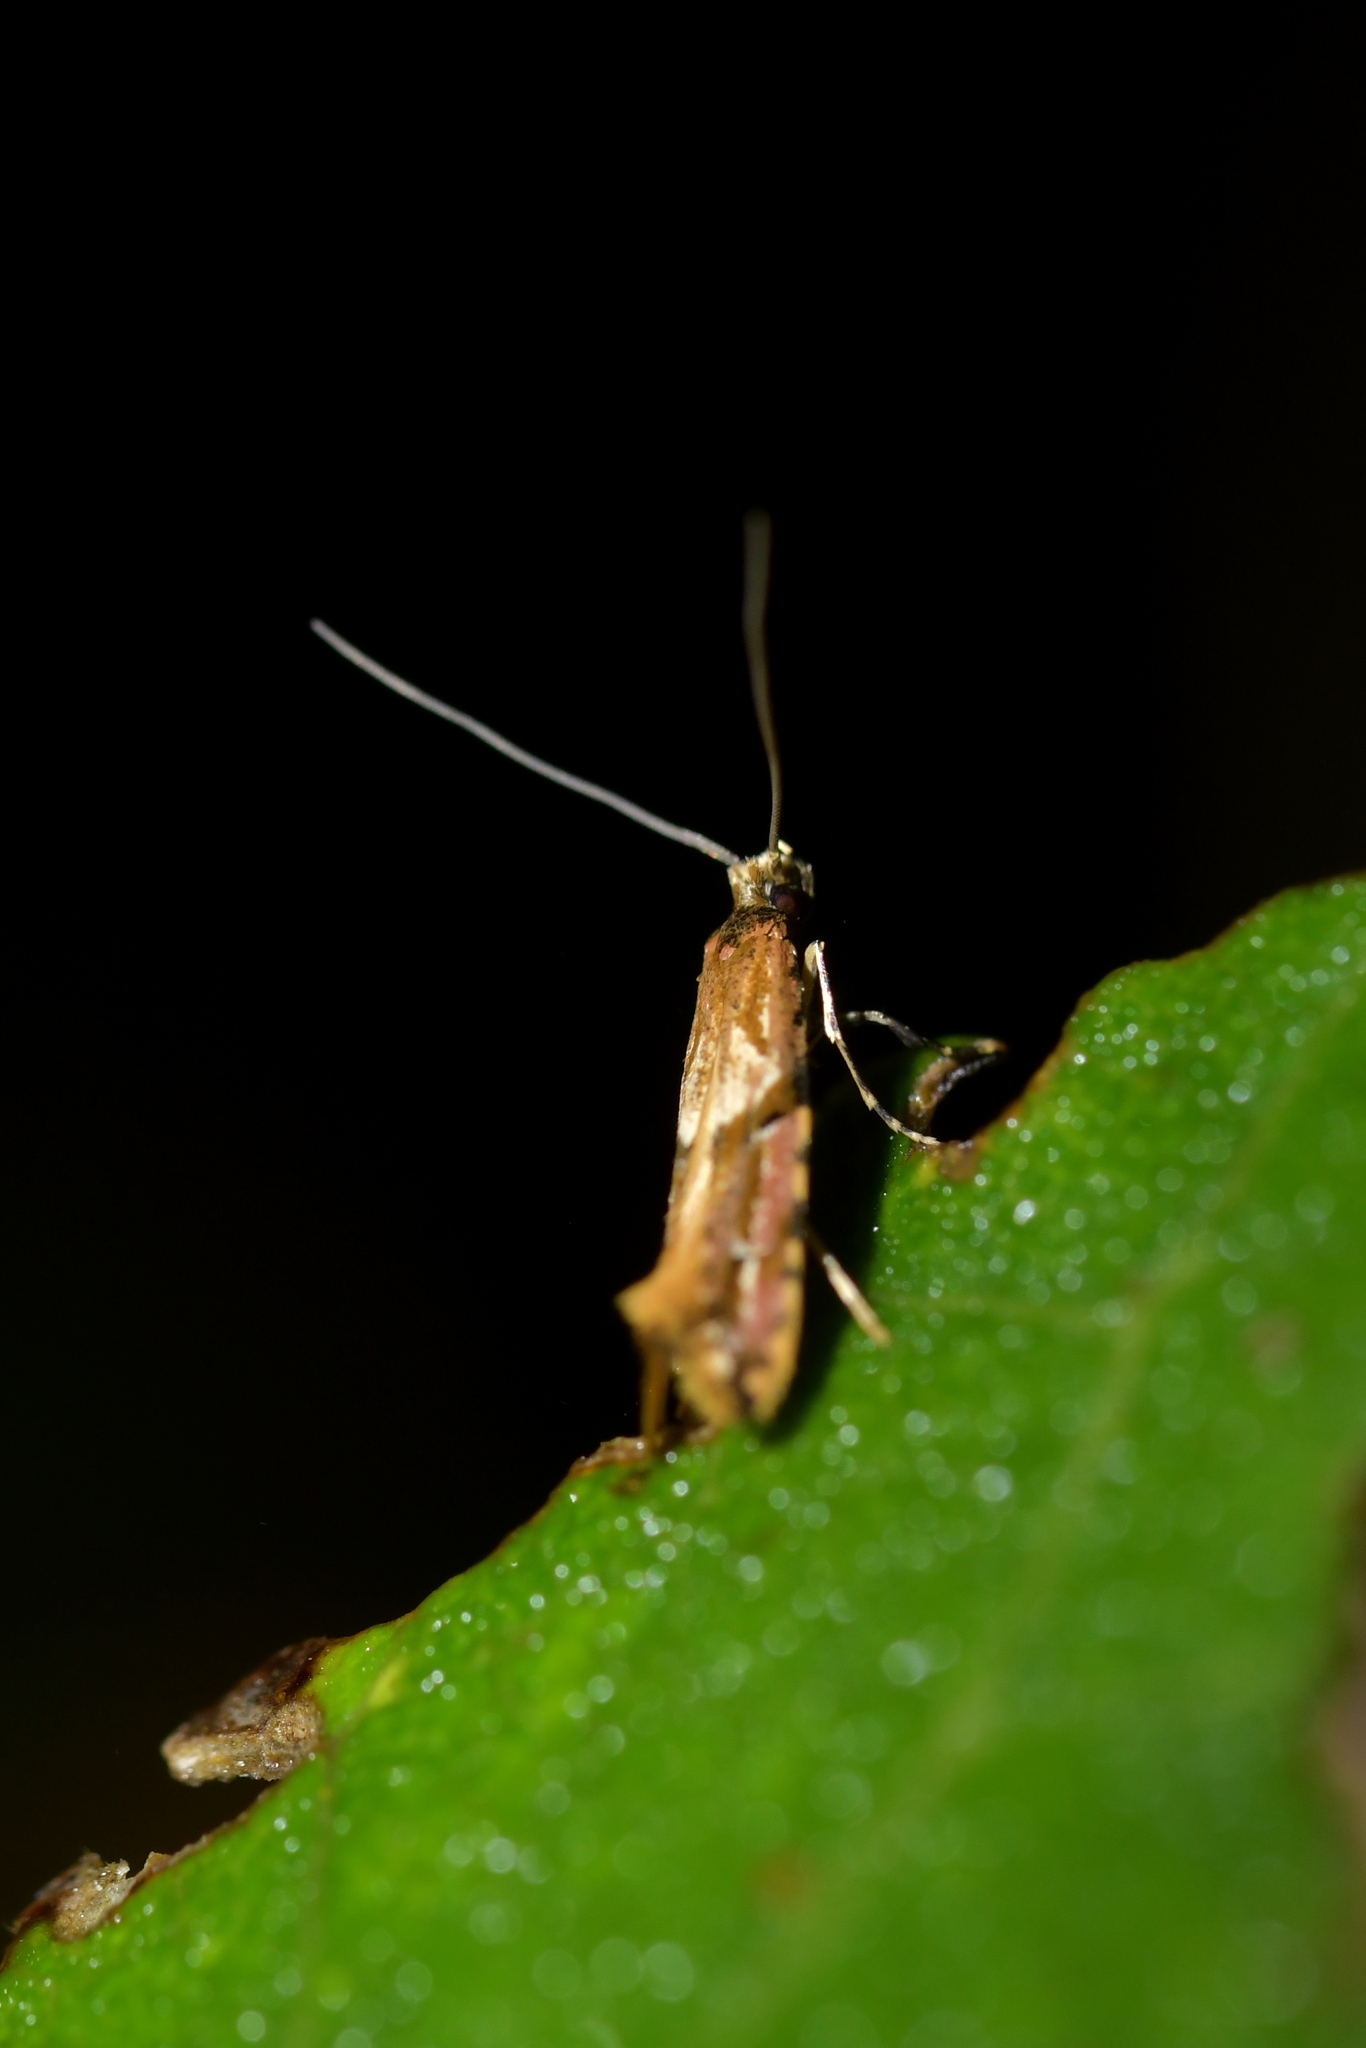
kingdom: Animalia
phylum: Arthropoda
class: Insecta
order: Lepidoptera
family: Tineidae
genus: Crypsitricha
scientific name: Crypsitricha roseata
